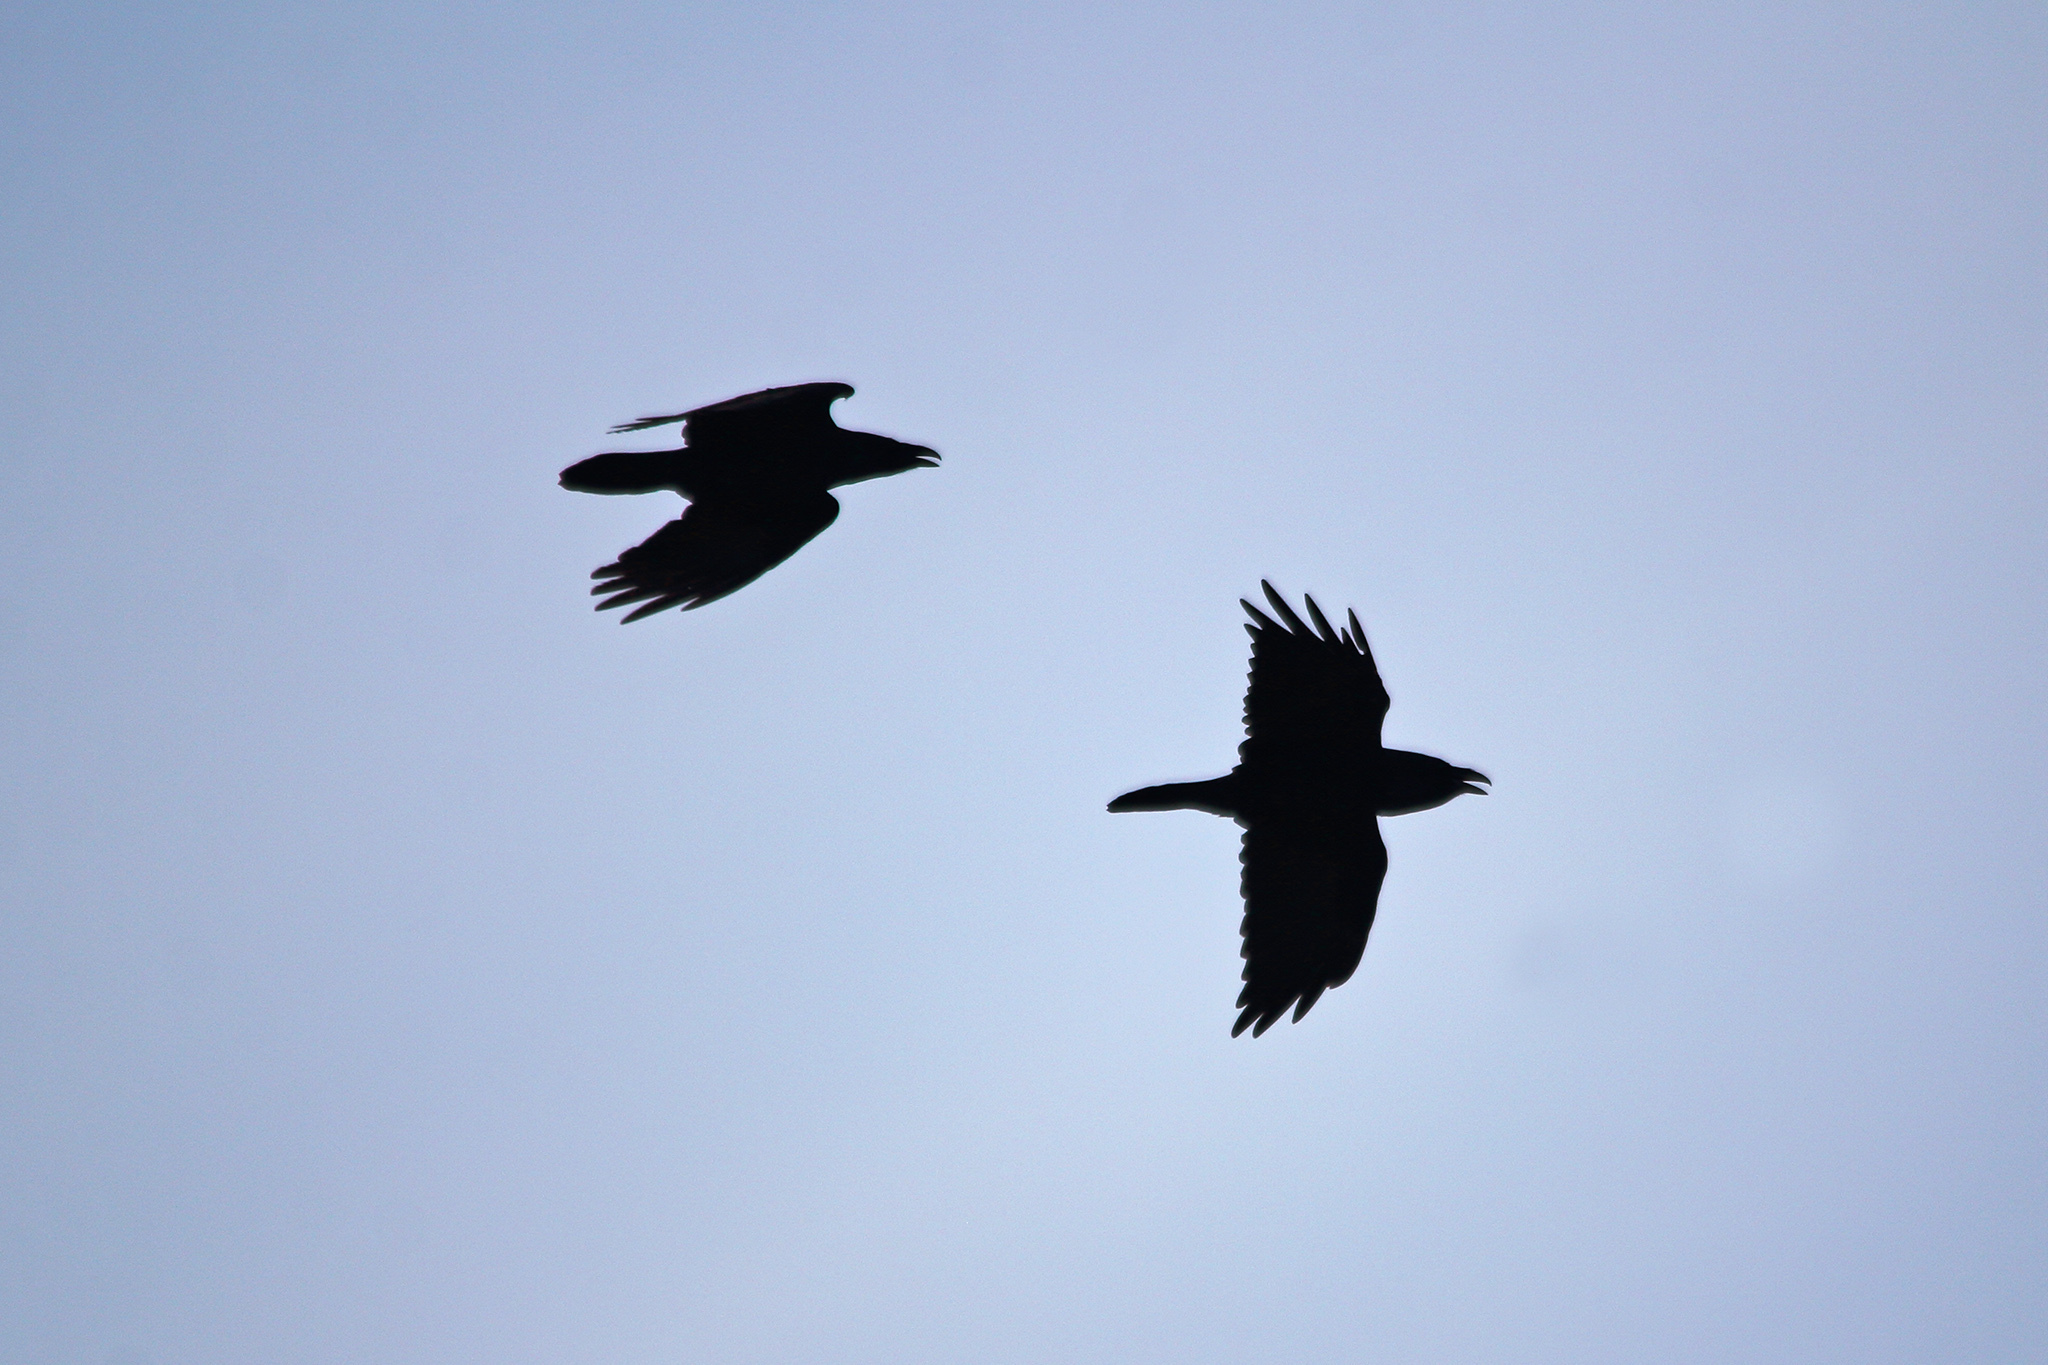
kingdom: Animalia
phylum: Chordata
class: Aves
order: Passeriformes
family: Corvidae
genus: Corvus
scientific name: Corvus corax
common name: Common raven
